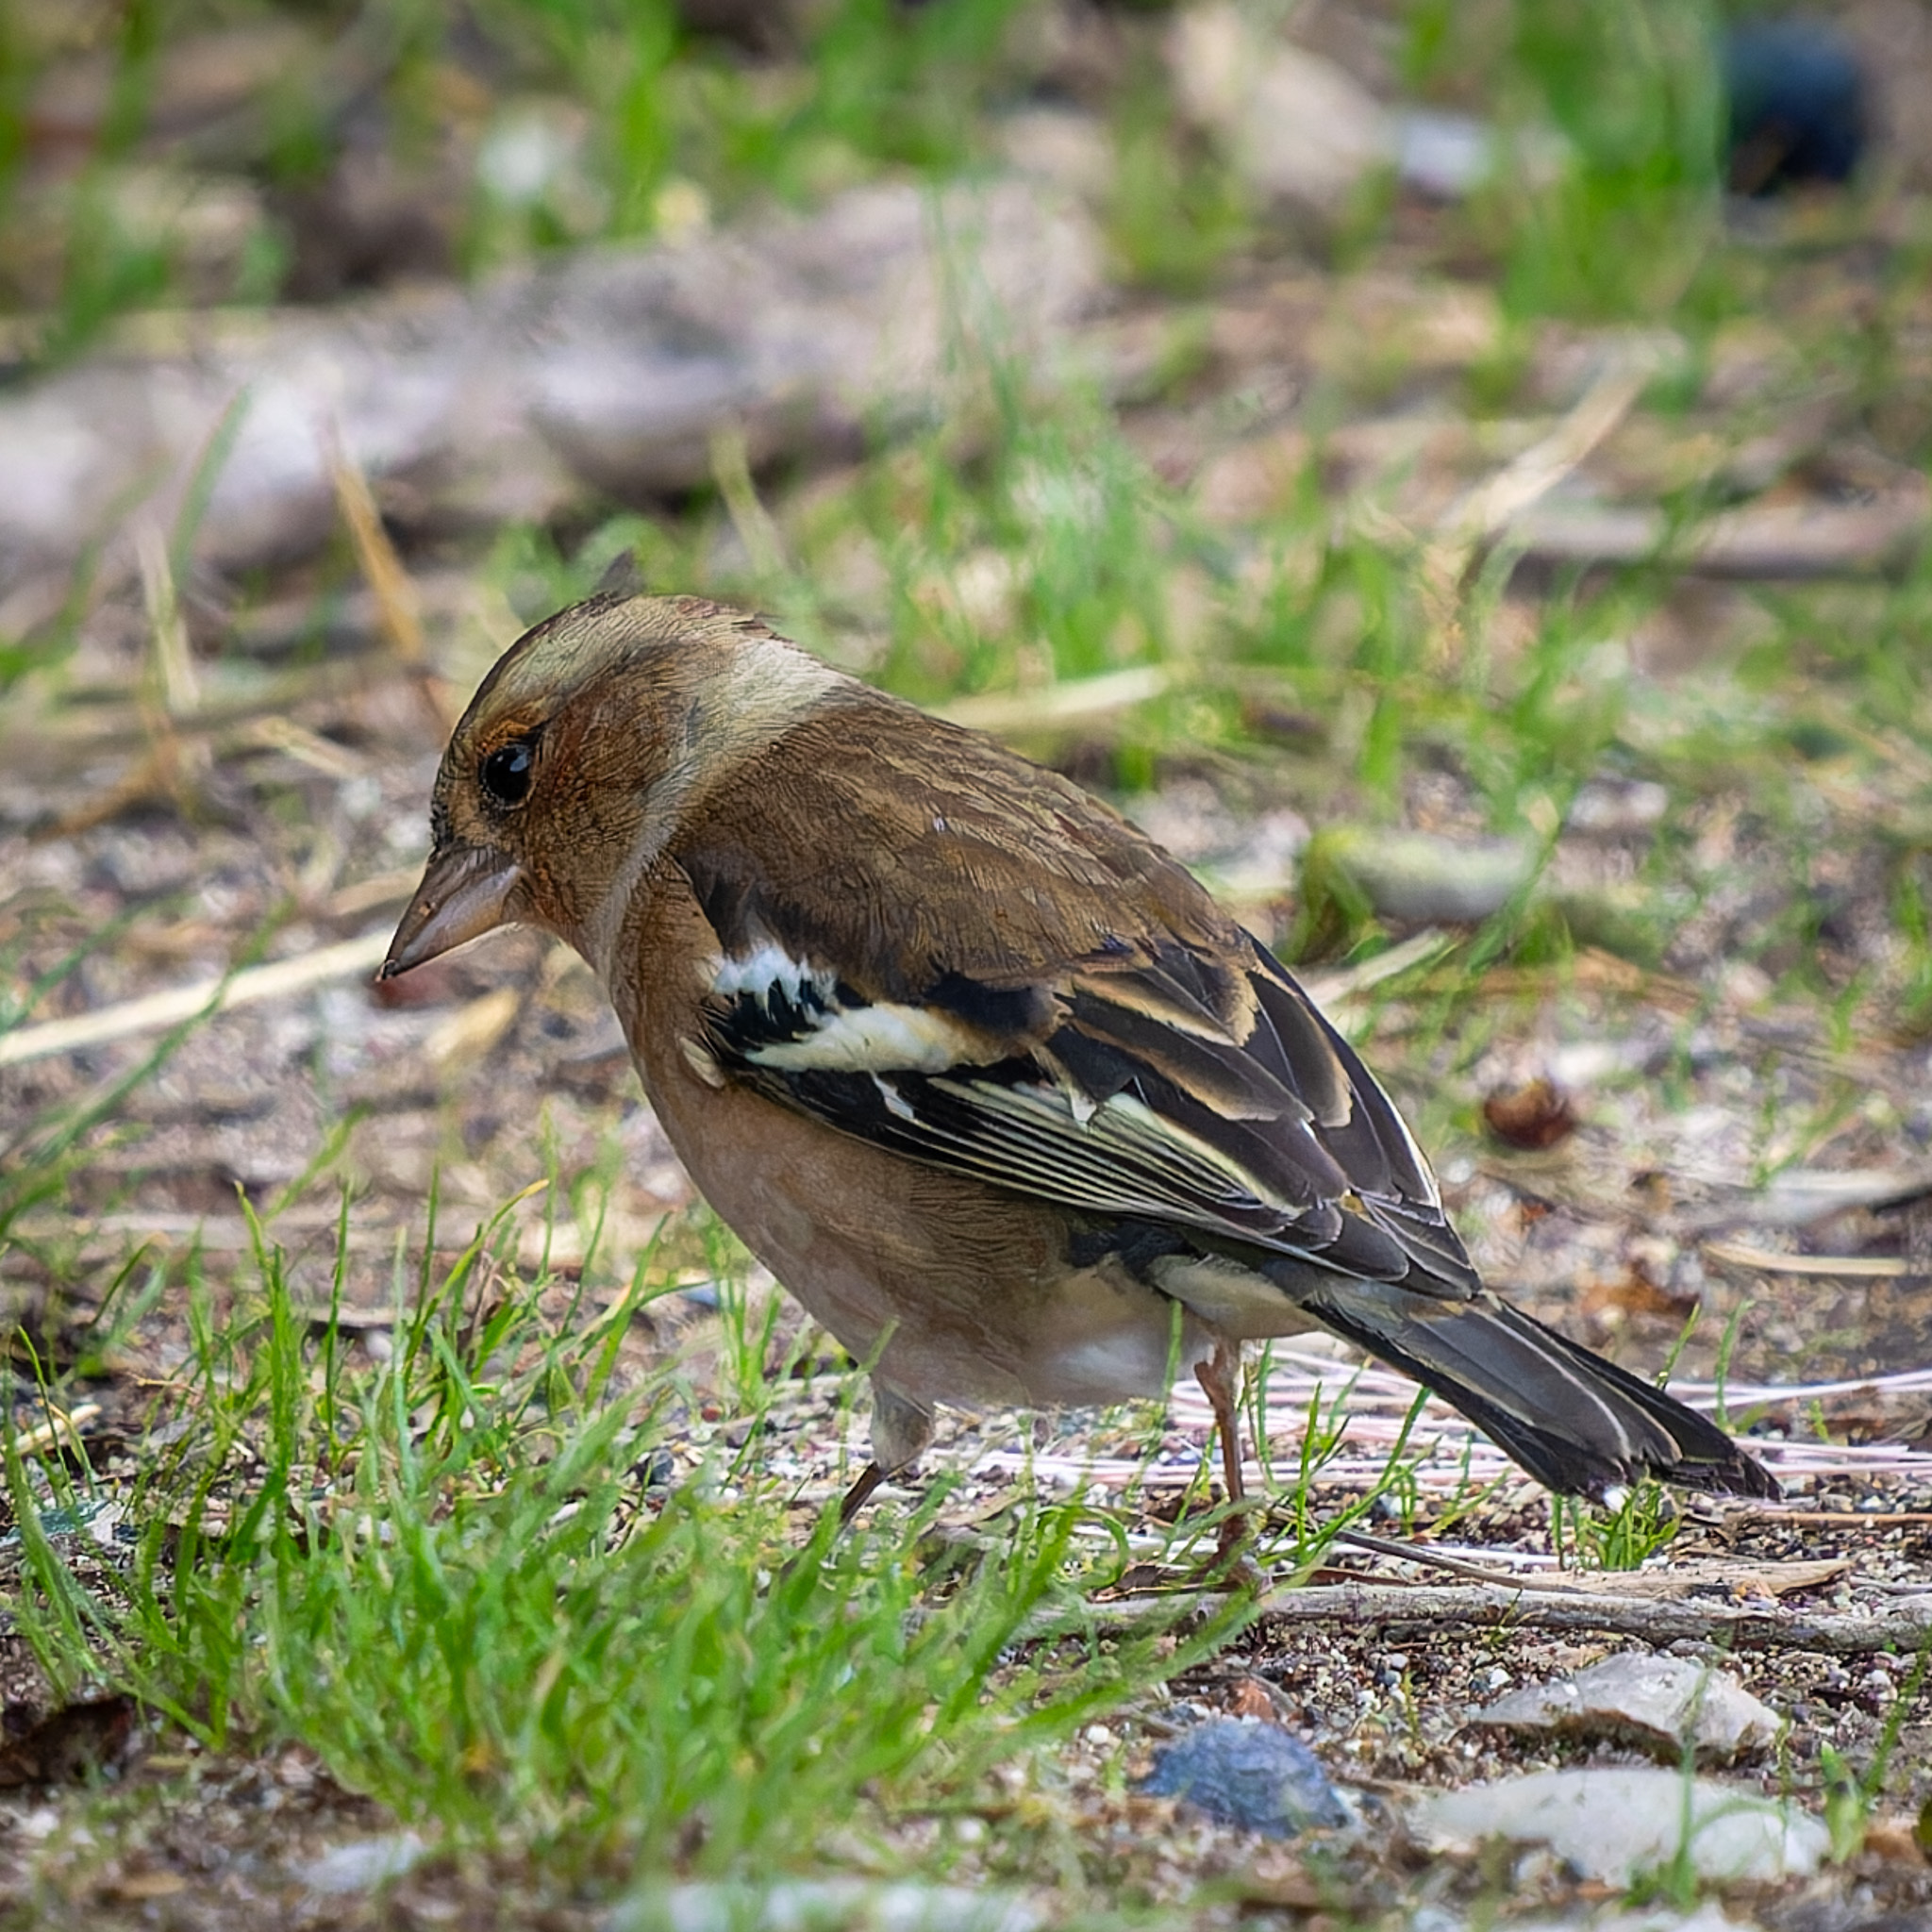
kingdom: Animalia
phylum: Chordata
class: Aves
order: Passeriformes
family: Fringillidae
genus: Fringilla
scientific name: Fringilla coelebs
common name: Common chaffinch
